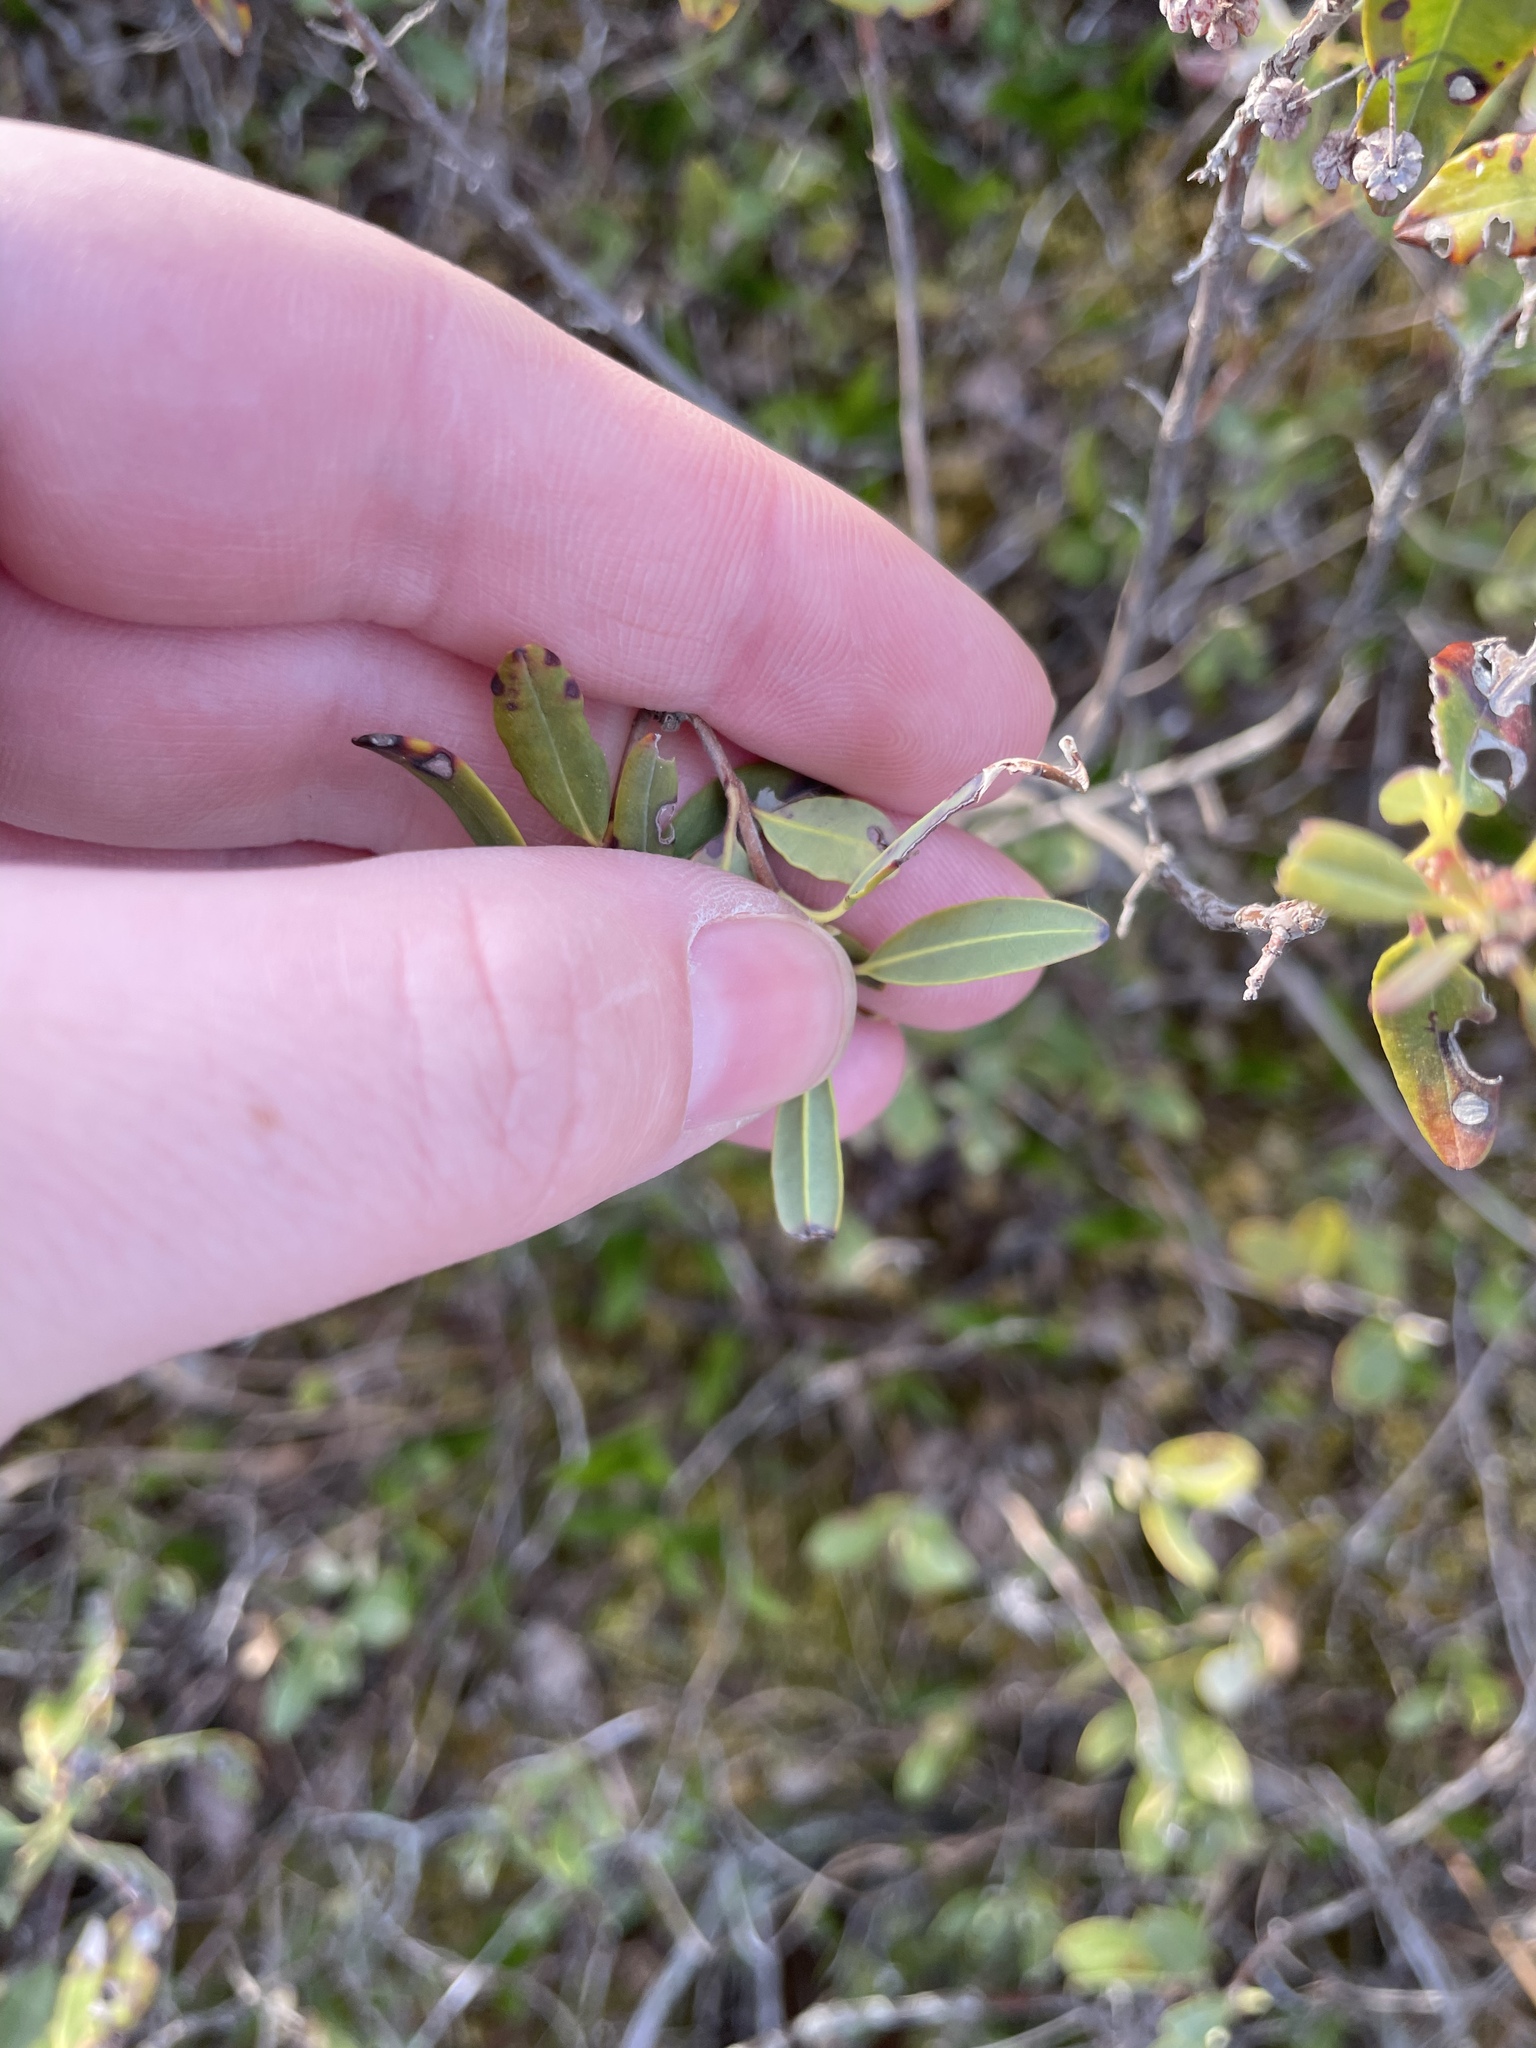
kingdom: Plantae
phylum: Tracheophyta
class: Magnoliopsida
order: Ericales
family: Ericaceae
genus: Kalmia
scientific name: Kalmia angustifolia
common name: Sheep-laurel
